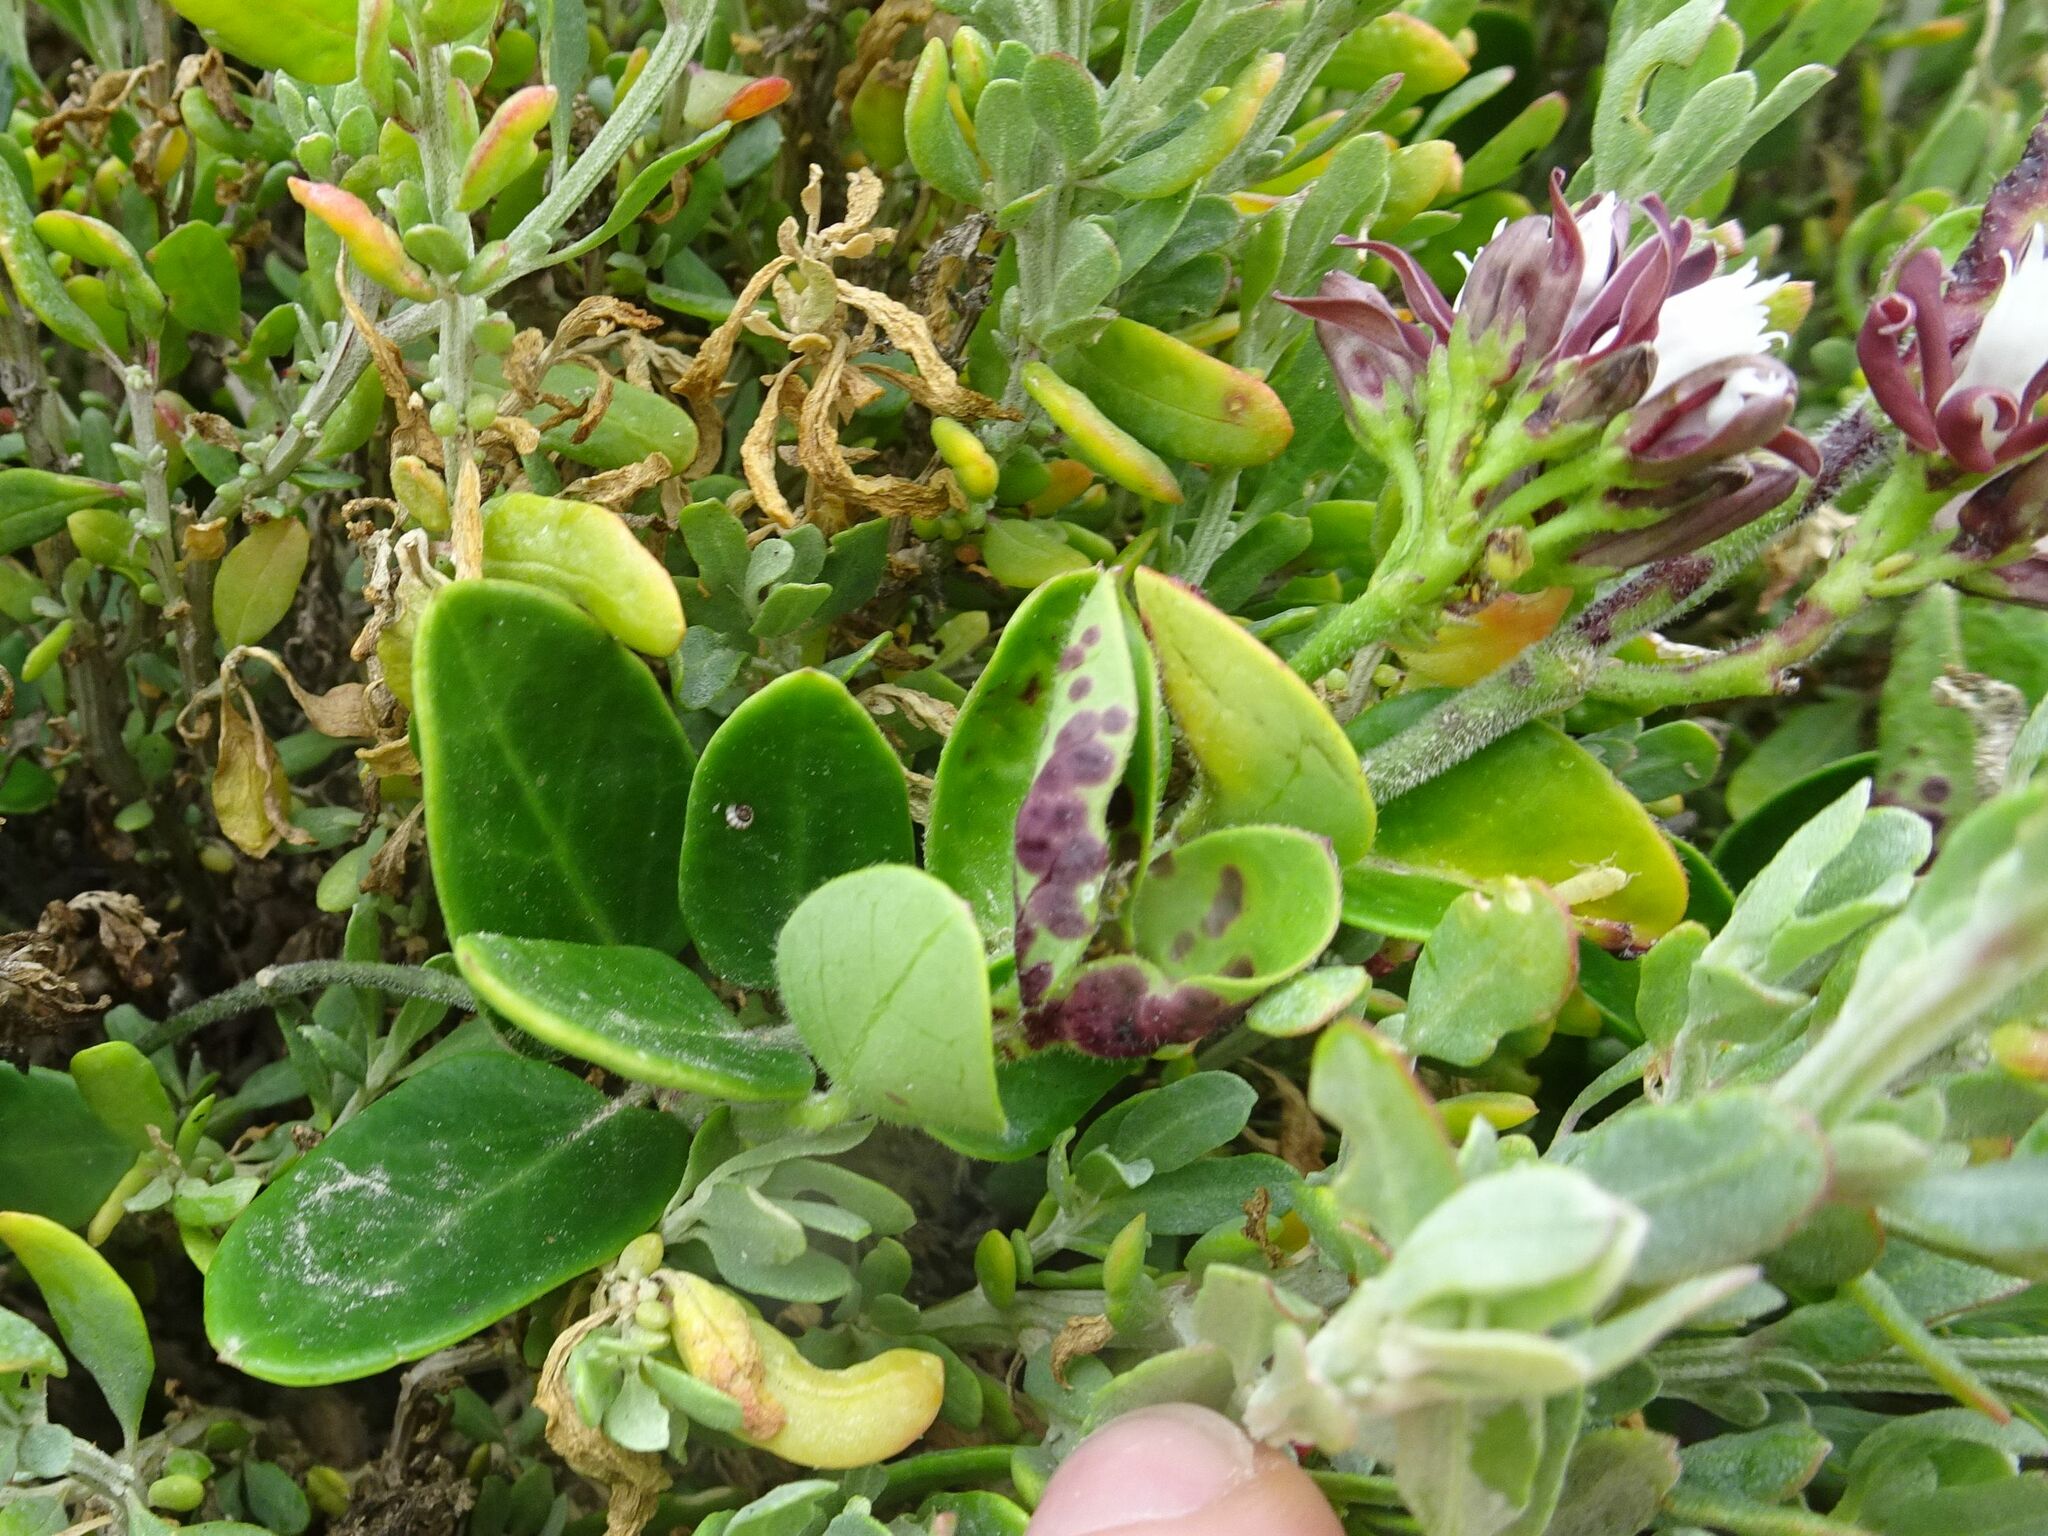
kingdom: Plantae
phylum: Tracheophyta
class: Magnoliopsida
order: Gentianales
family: Apocynaceae
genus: Cynanchum
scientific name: Cynanchum africanum
